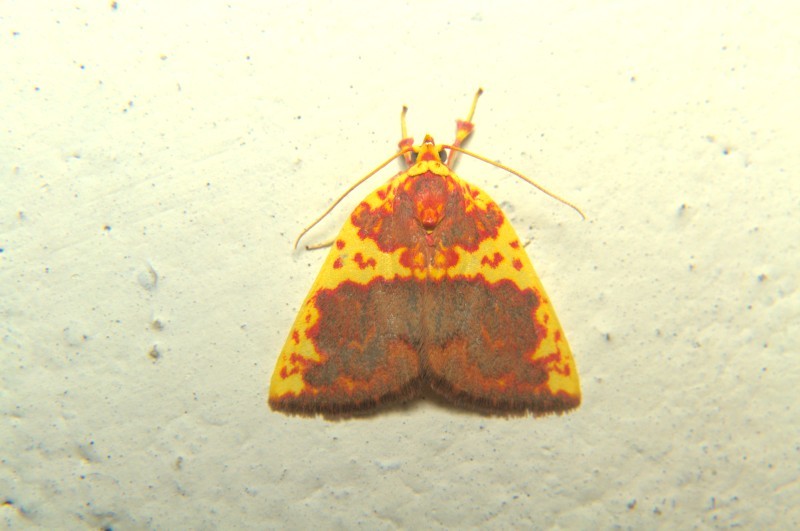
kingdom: Animalia
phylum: Arthropoda
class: Insecta
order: Lepidoptera
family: Nolidae
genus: Siglophora
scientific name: Siglophora sanguinolenta
